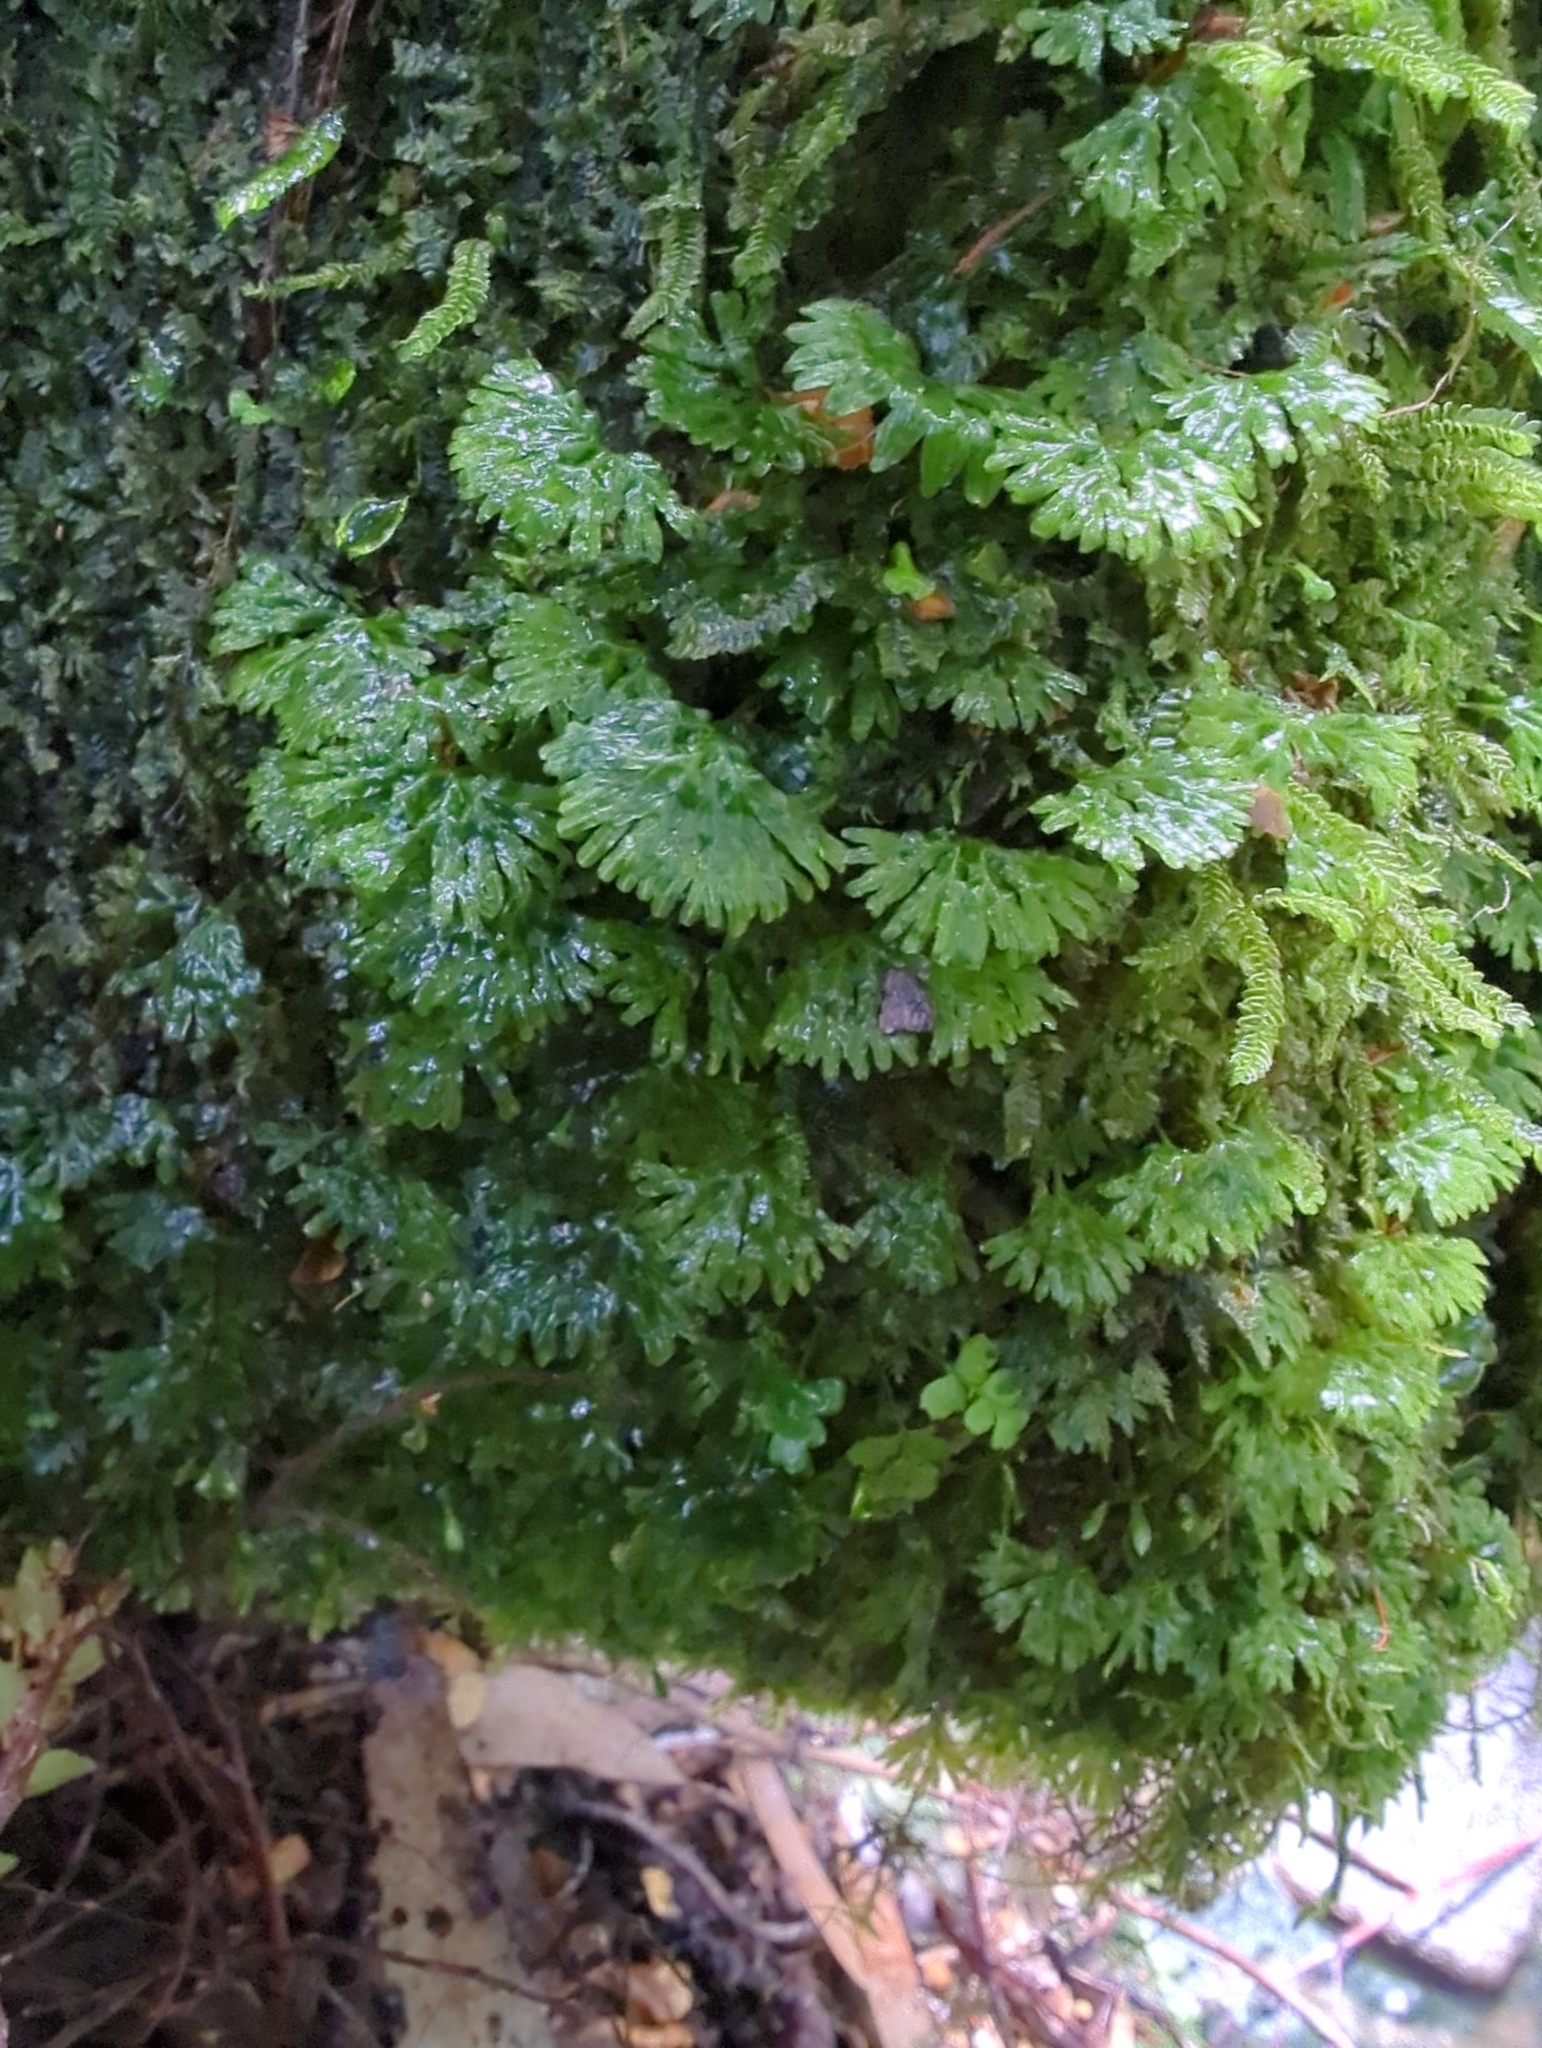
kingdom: Plantae
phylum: Marchantiophyta
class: Jungermanniopsida
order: Pallaviciniales
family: Hymenophytaceae
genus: Hymenophyton
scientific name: Hymenophyton flabellatum
